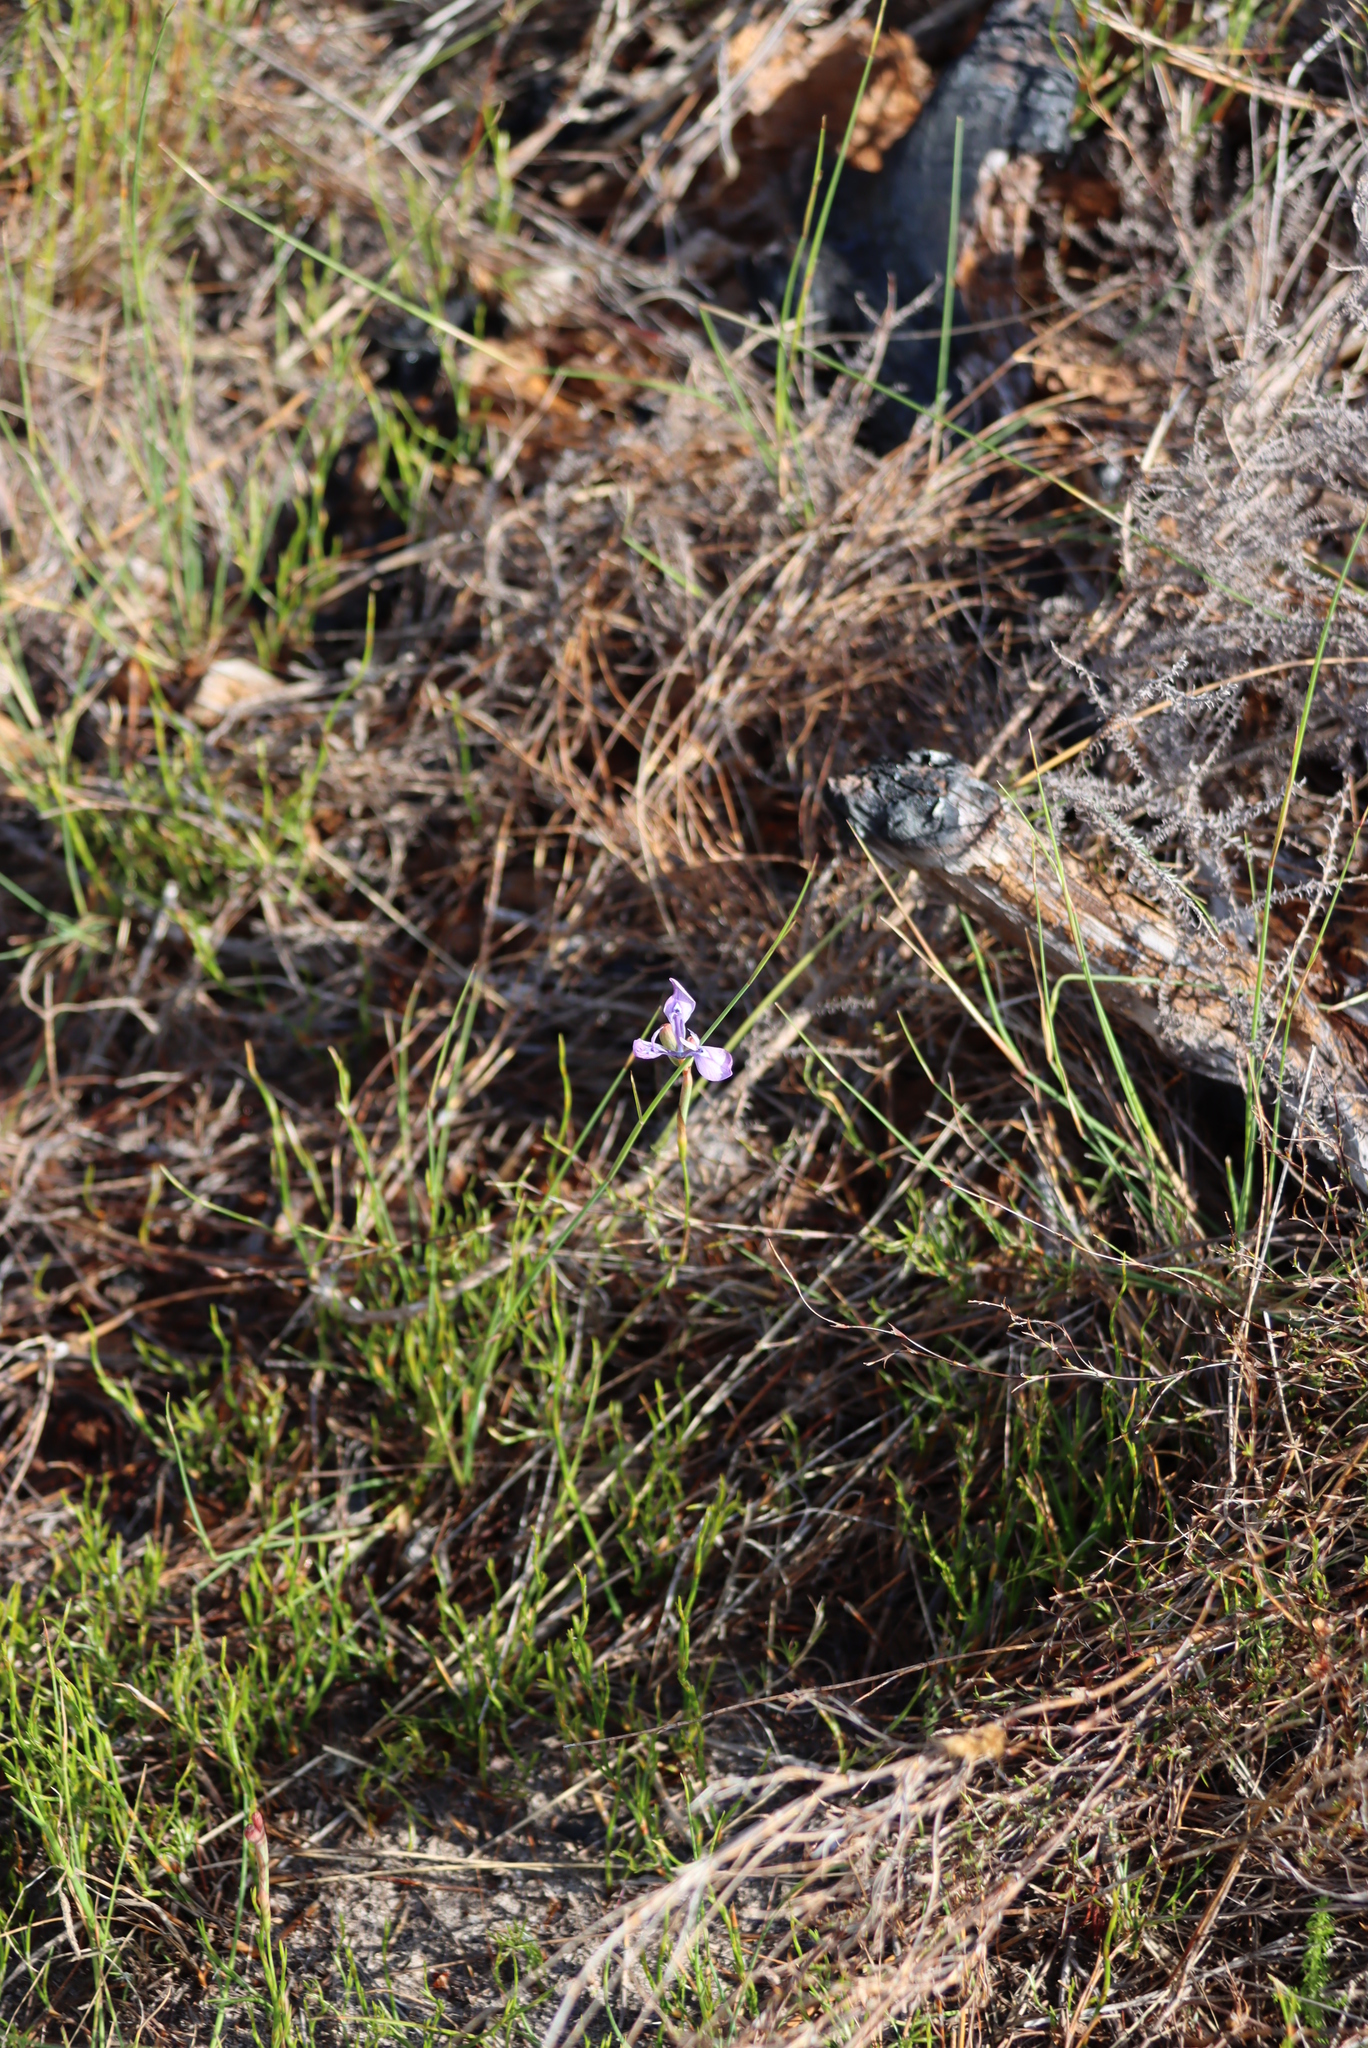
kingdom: Plantae
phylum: Tracheophyta
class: Liliopsida
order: Asparagales
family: Iridaceae
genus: Moraea
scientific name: Moraea tripetala
